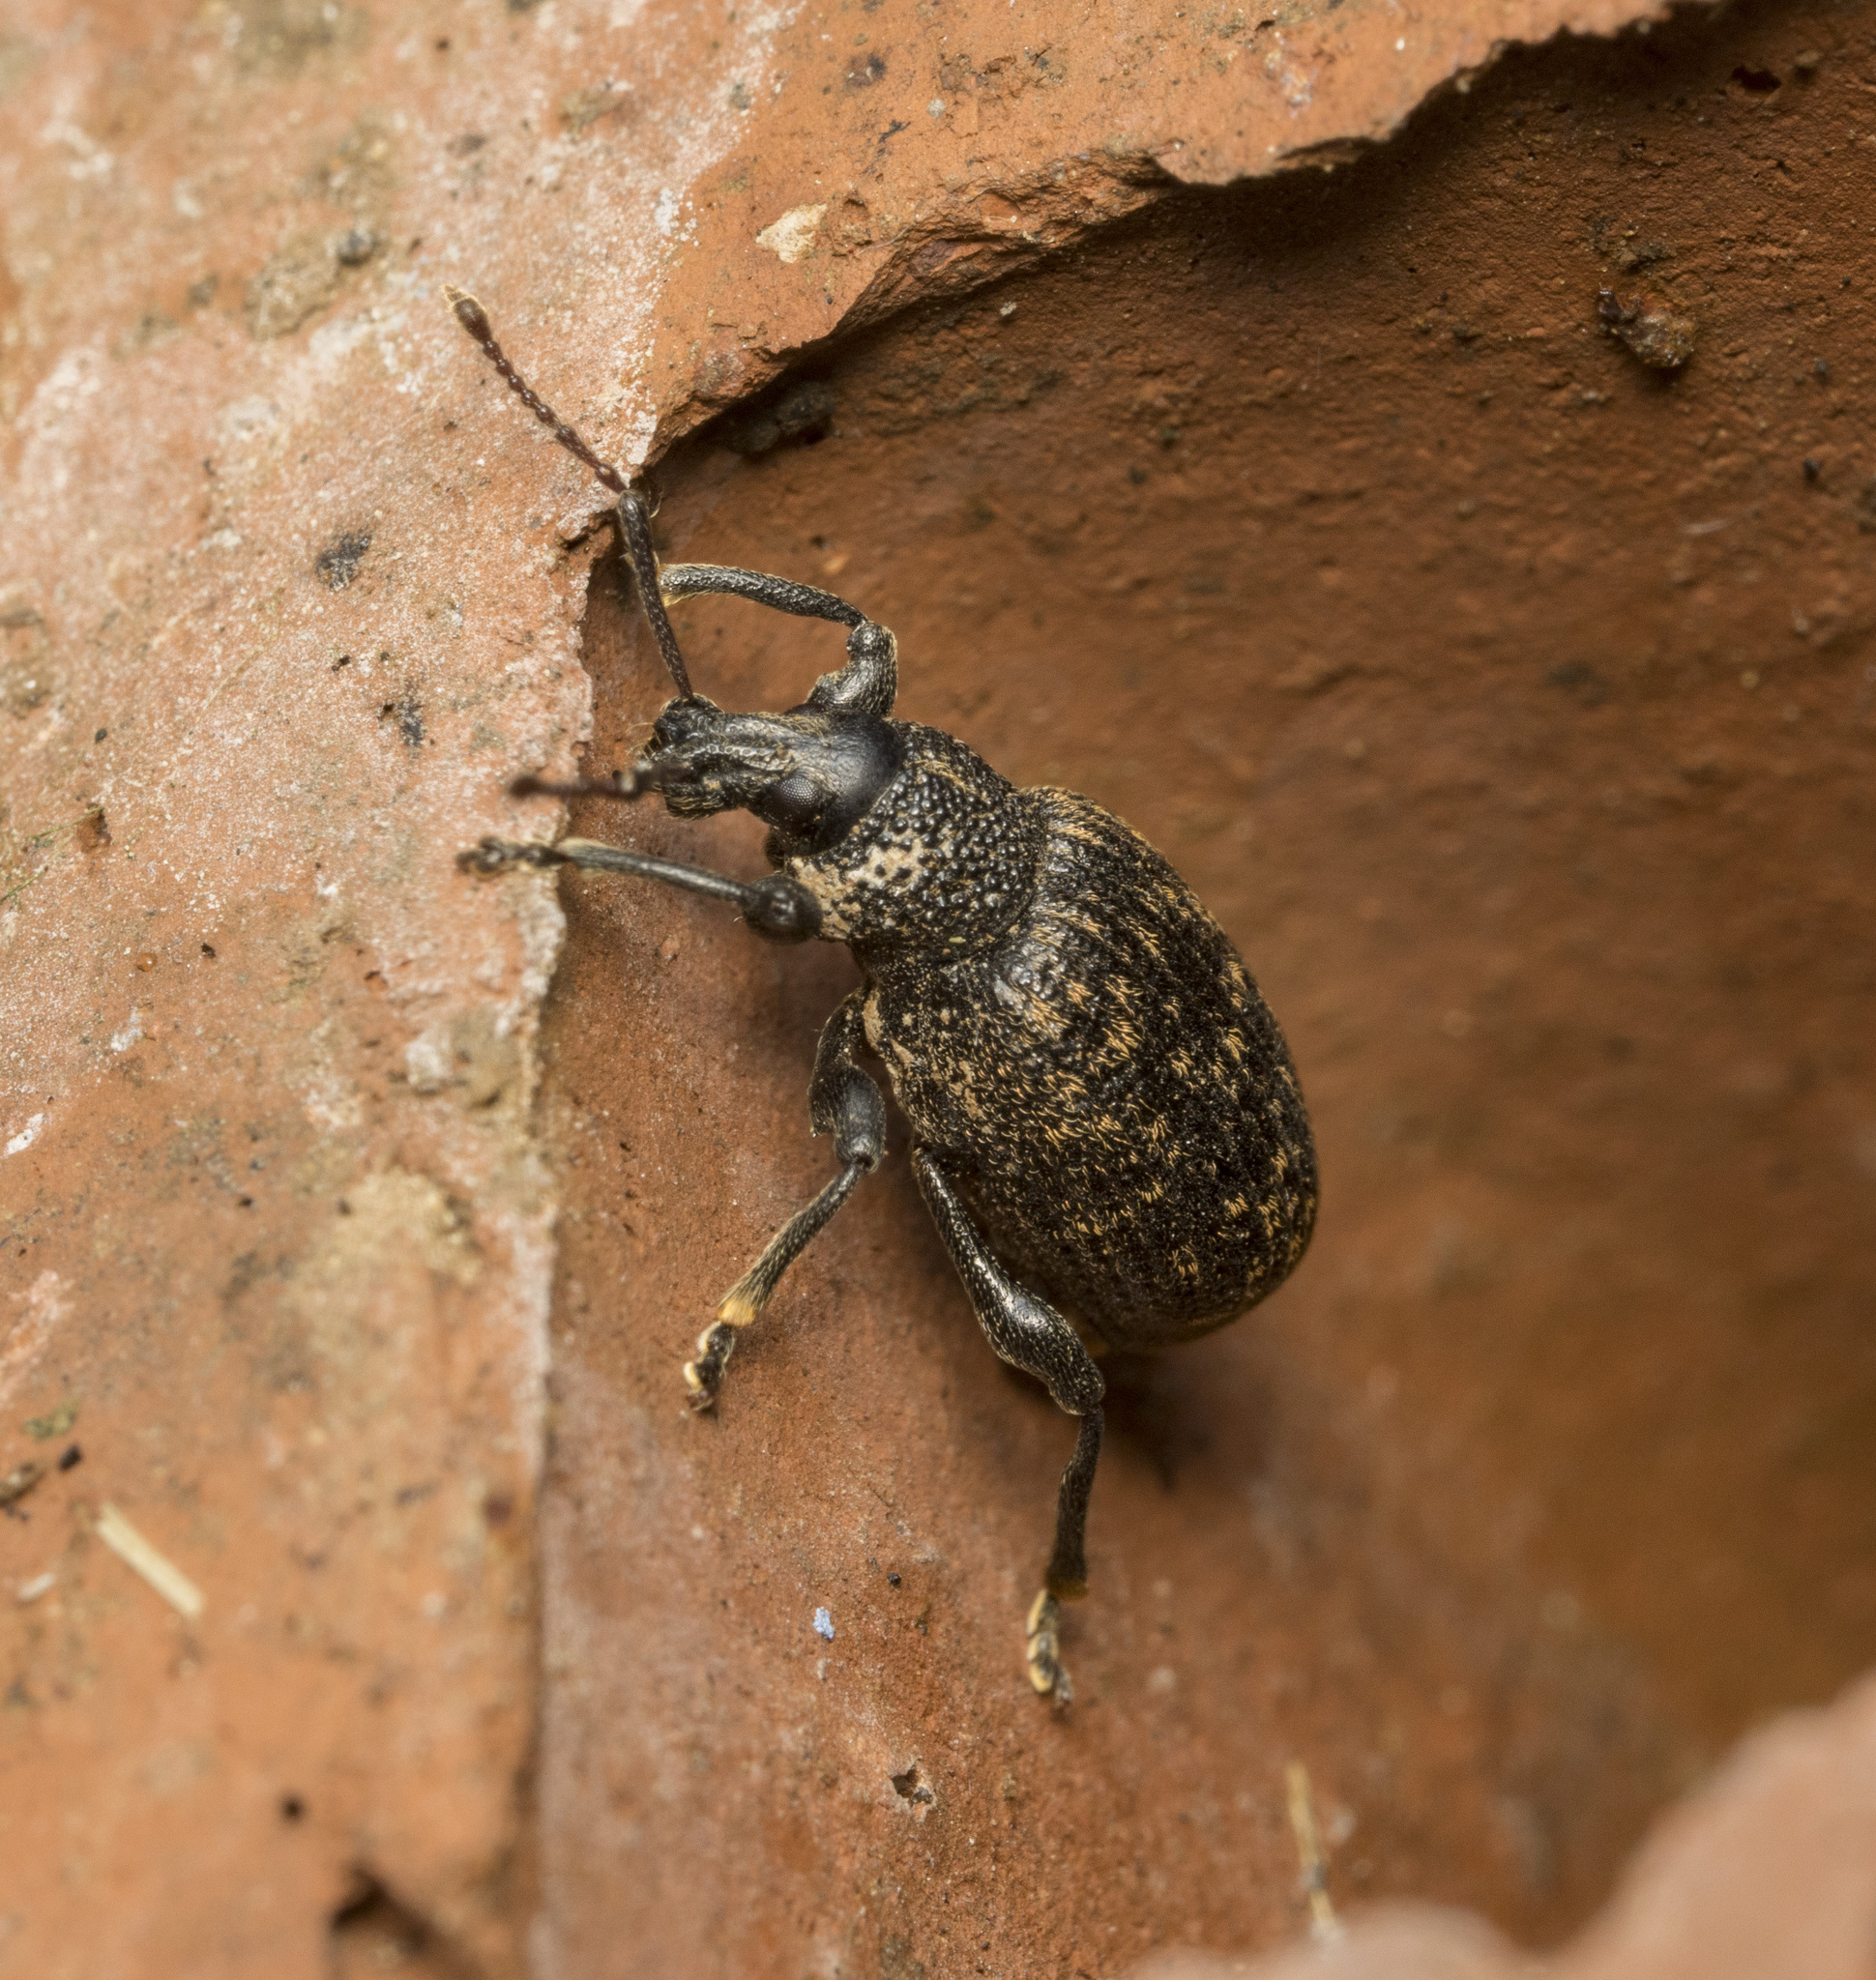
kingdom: Animalia
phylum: Arthropoda
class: Insecta
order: Coleoptera
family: Curculionidae
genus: Otiorhynchus
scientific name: Otiorhynchus sulcatus
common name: Black vine weevil
